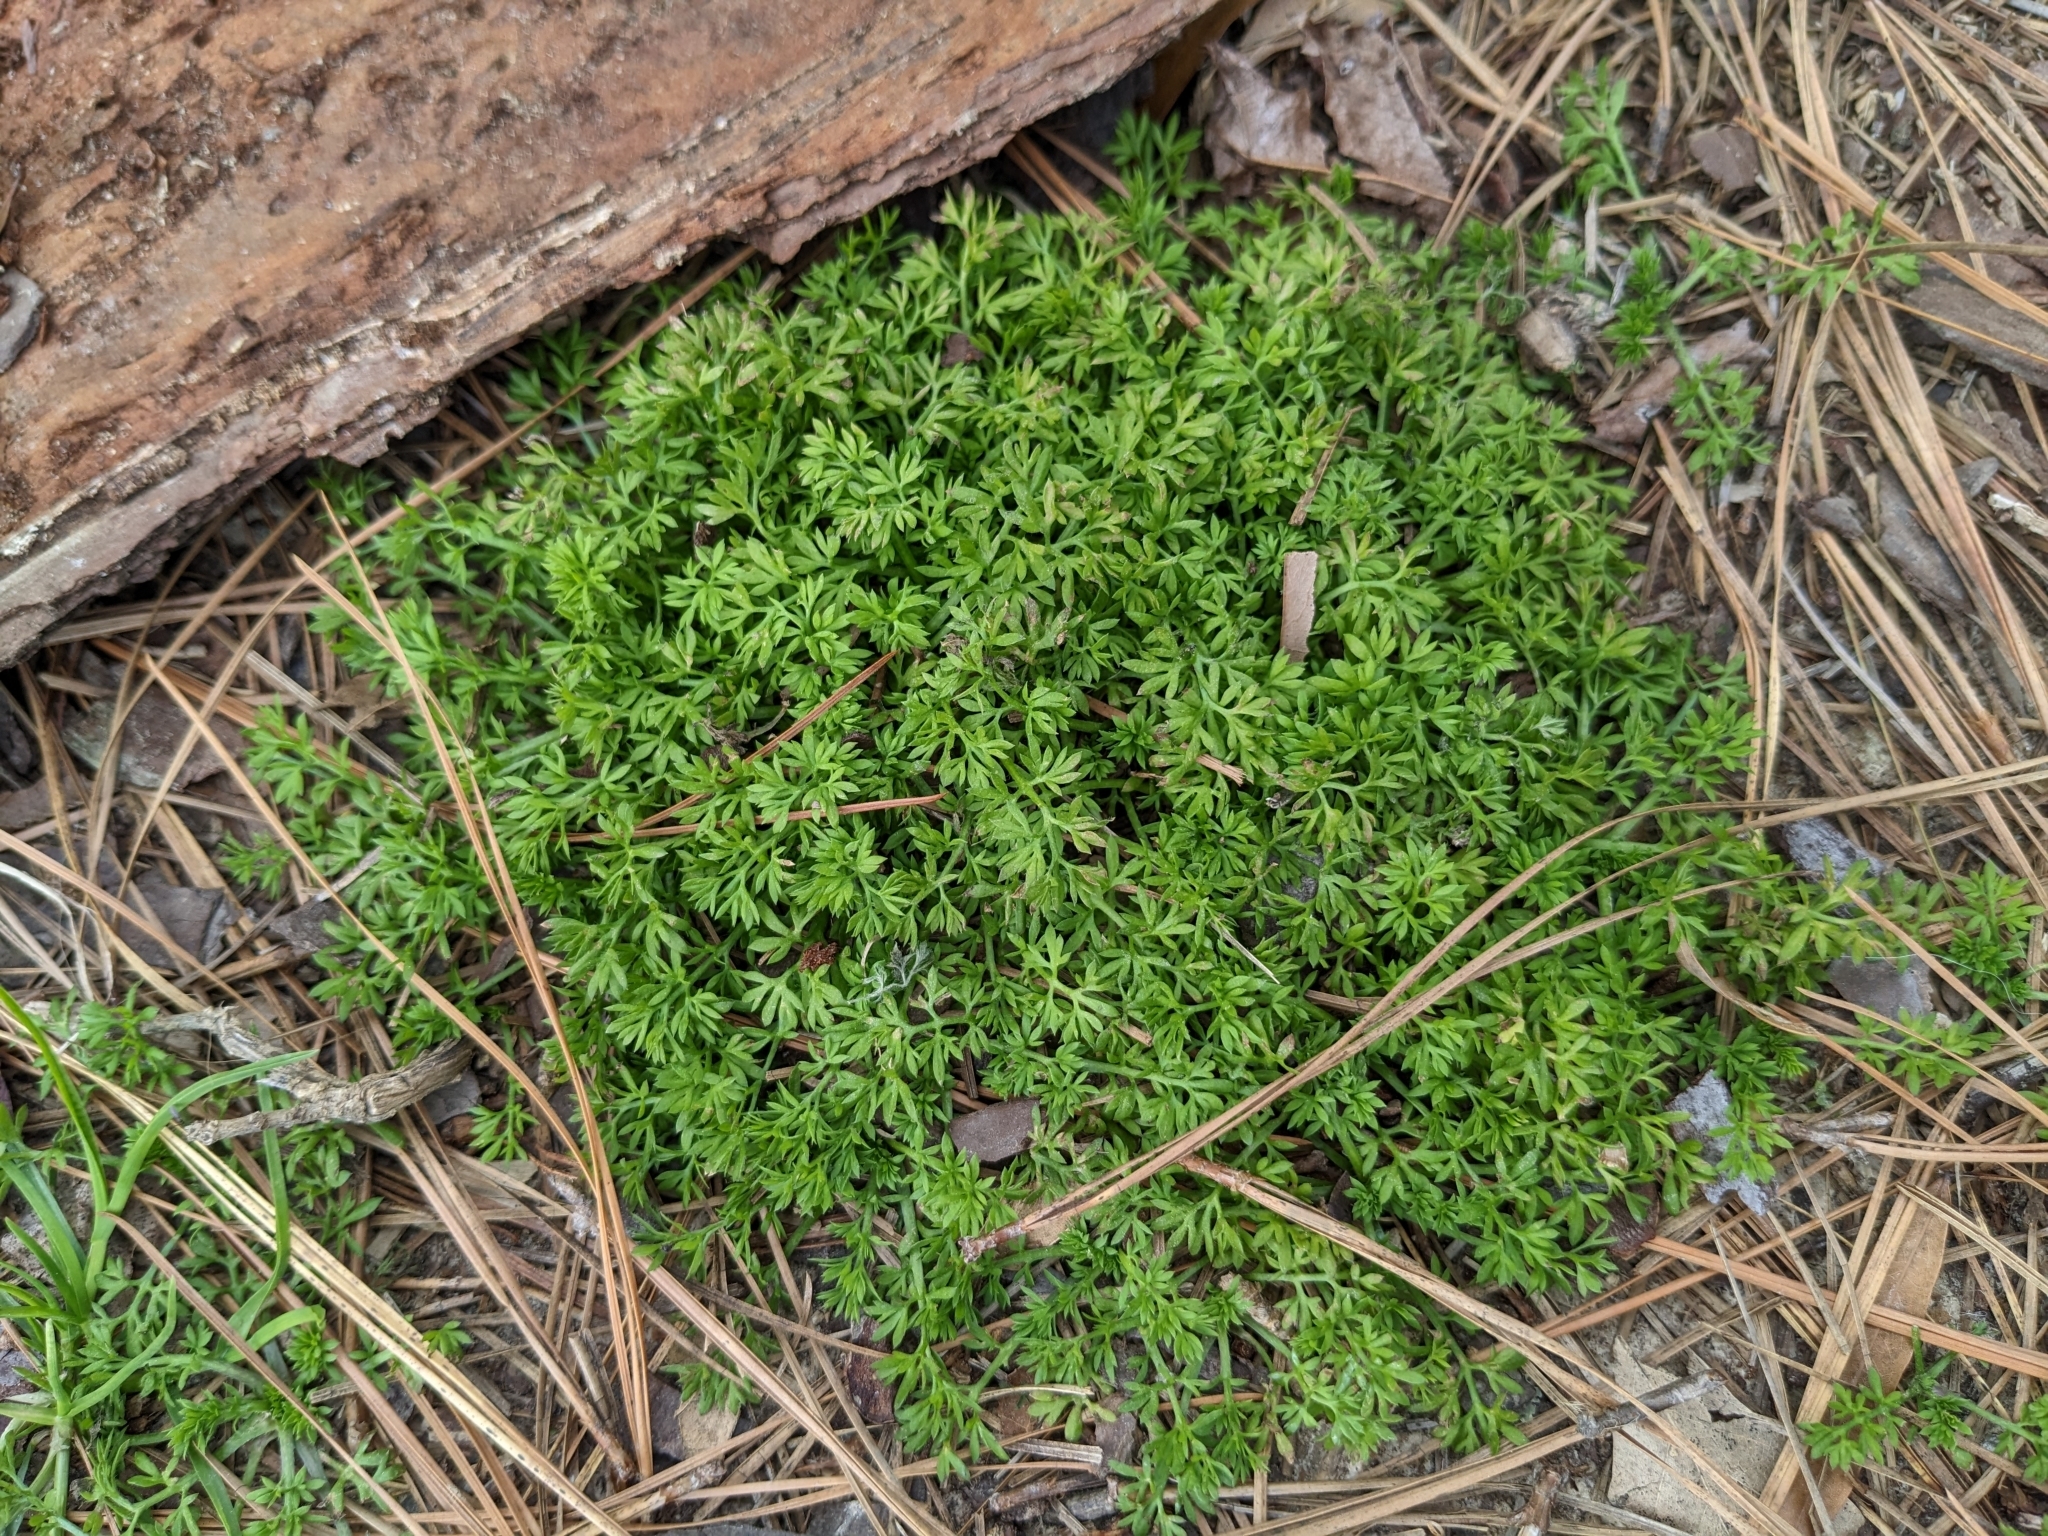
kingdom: Plantae
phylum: Tracheophyta
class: Magnoliopsida
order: Asterales
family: Asteraceae
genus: Soliva
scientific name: Soliva sessilis
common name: Field burrweed
